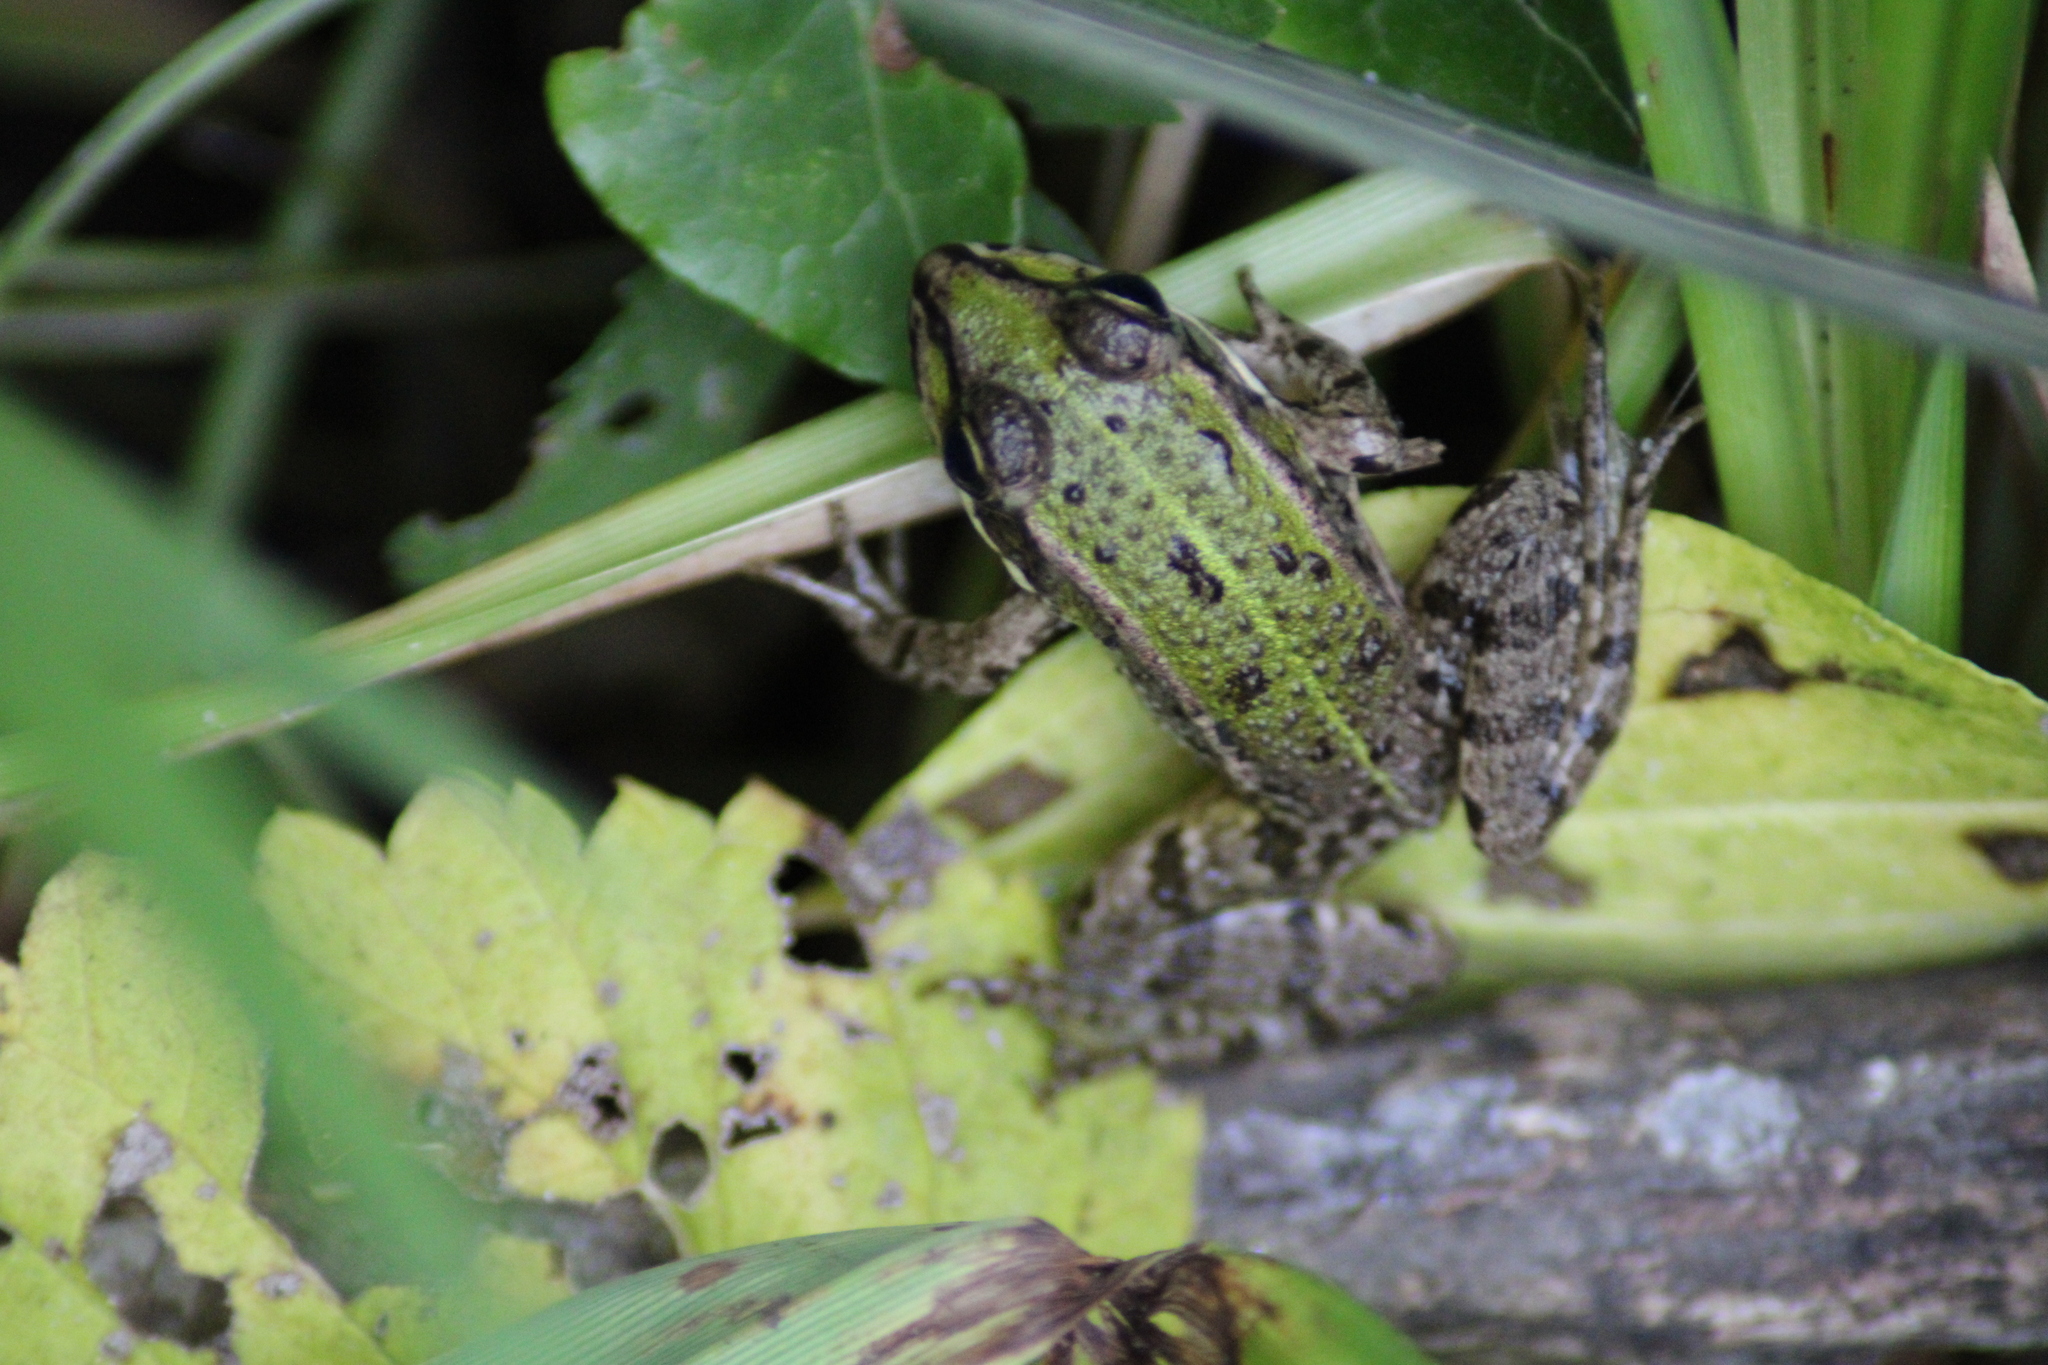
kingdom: Animalia
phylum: Chordata
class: Amphibia
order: Anura
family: Ranidae
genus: Pelophylax
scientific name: Pelophylax
